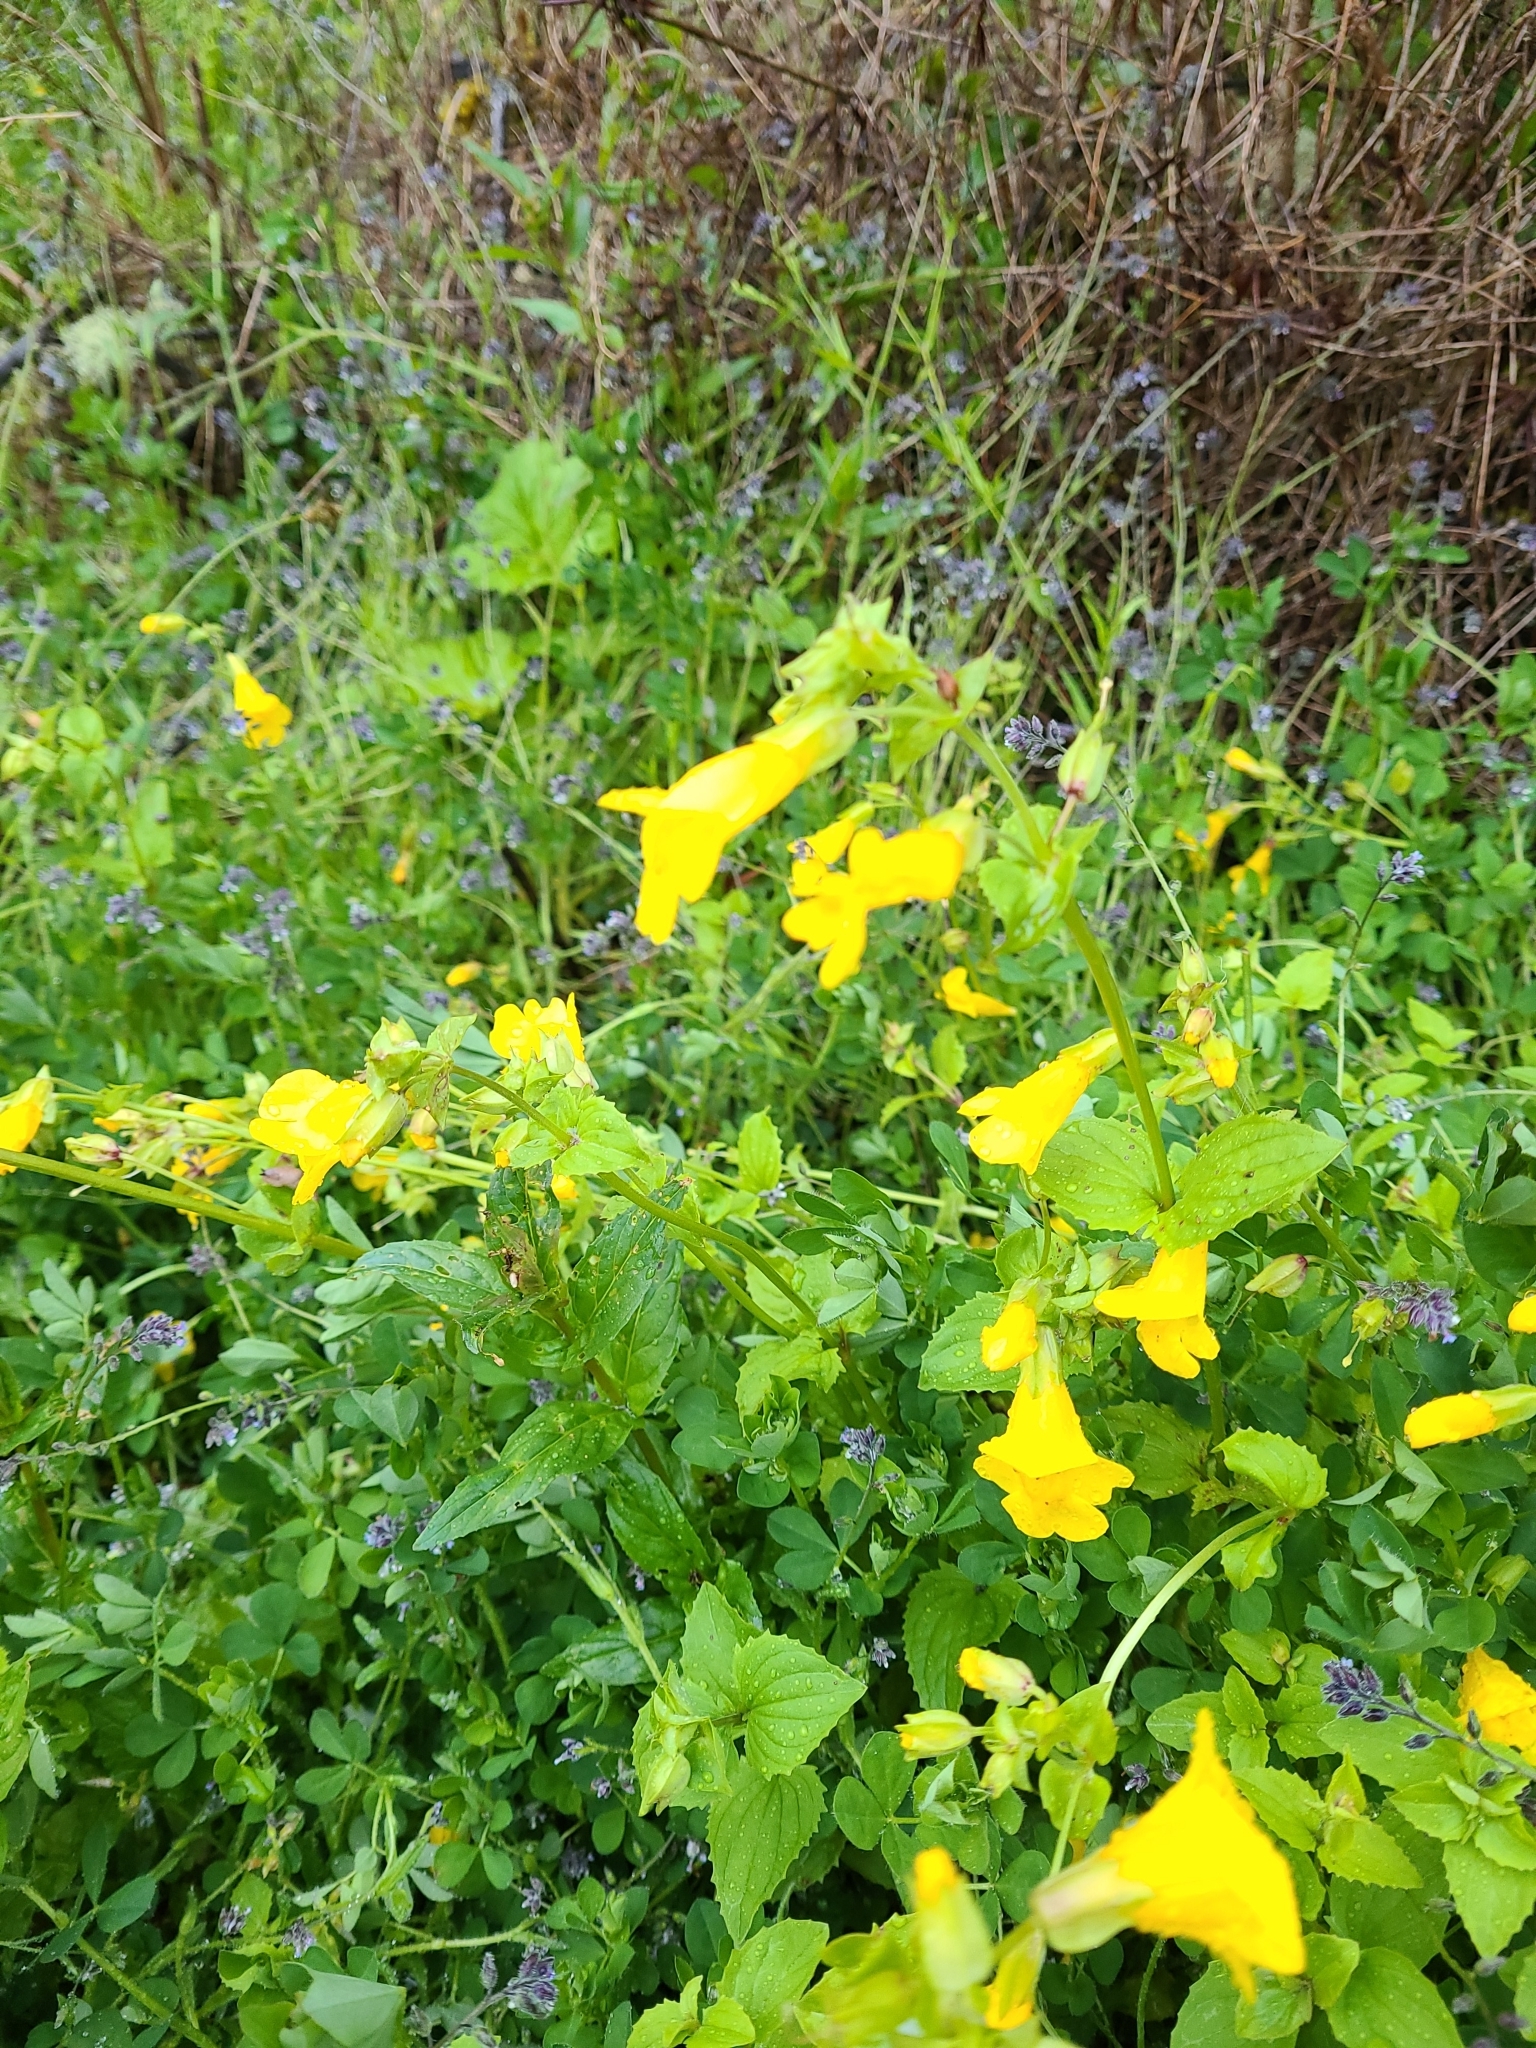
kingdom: Plantae
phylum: Tracheophyta
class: Magnoliopsida
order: Lamiales
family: Phrymaceae
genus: Erythranthe
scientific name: Erythranthe decora
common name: Mannered monkeyflower
